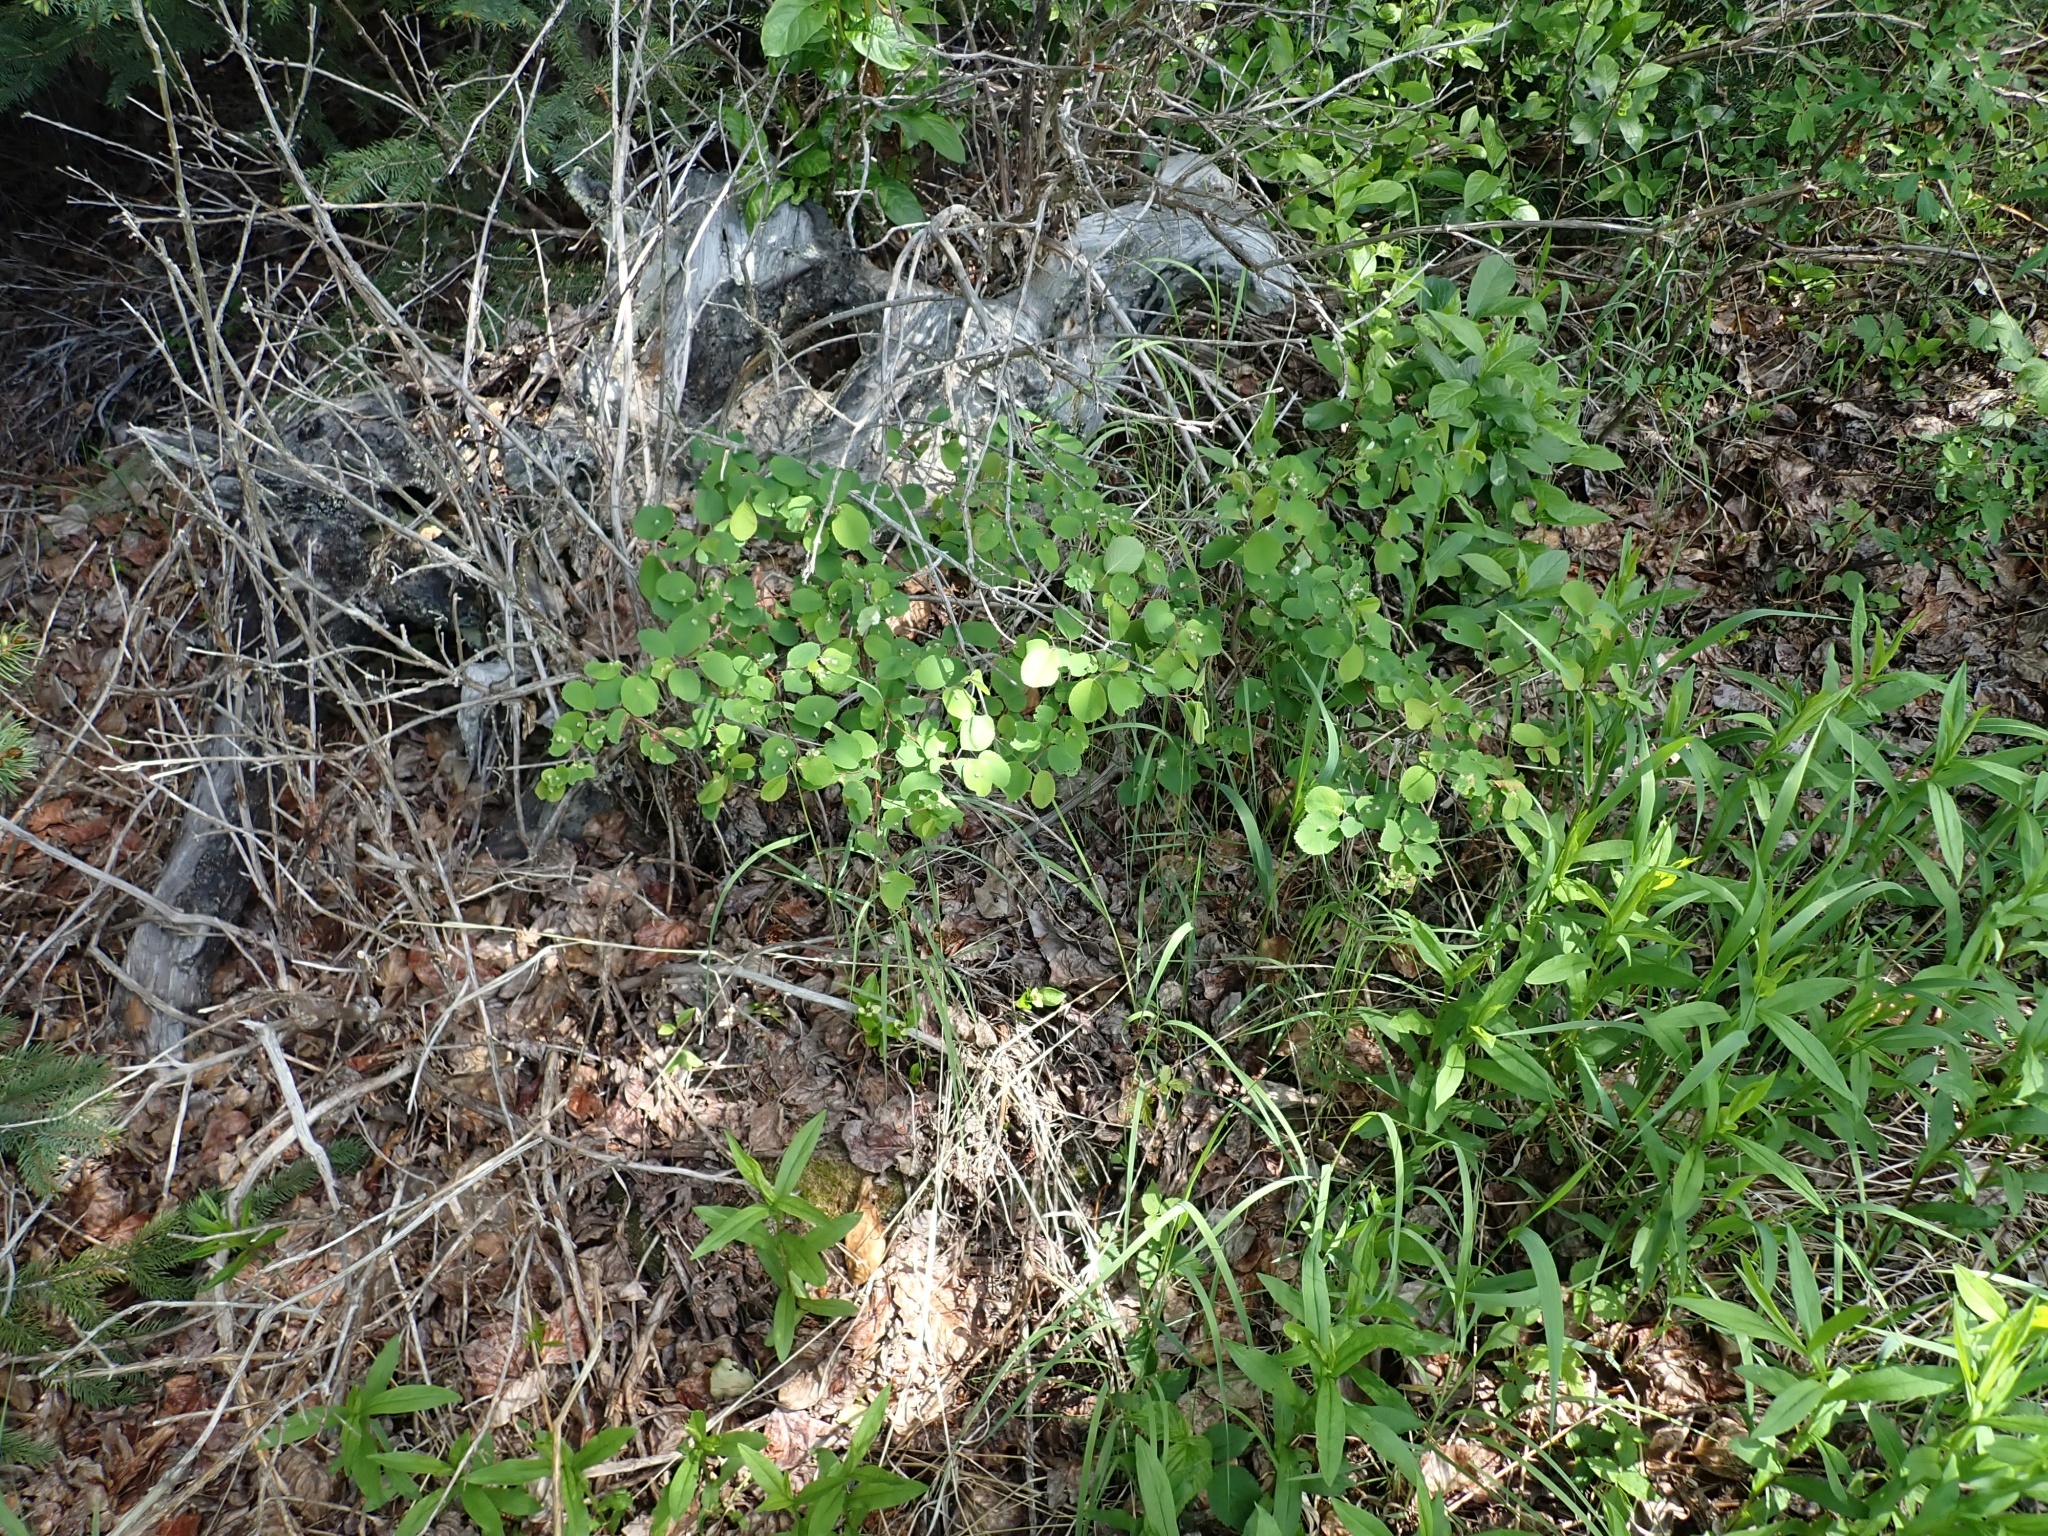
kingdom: Plantae
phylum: Tracheophyta
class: Magnoliopsida
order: Rosales
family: Rosaceae
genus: Amelanchier
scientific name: Amelanchier alnifolia
